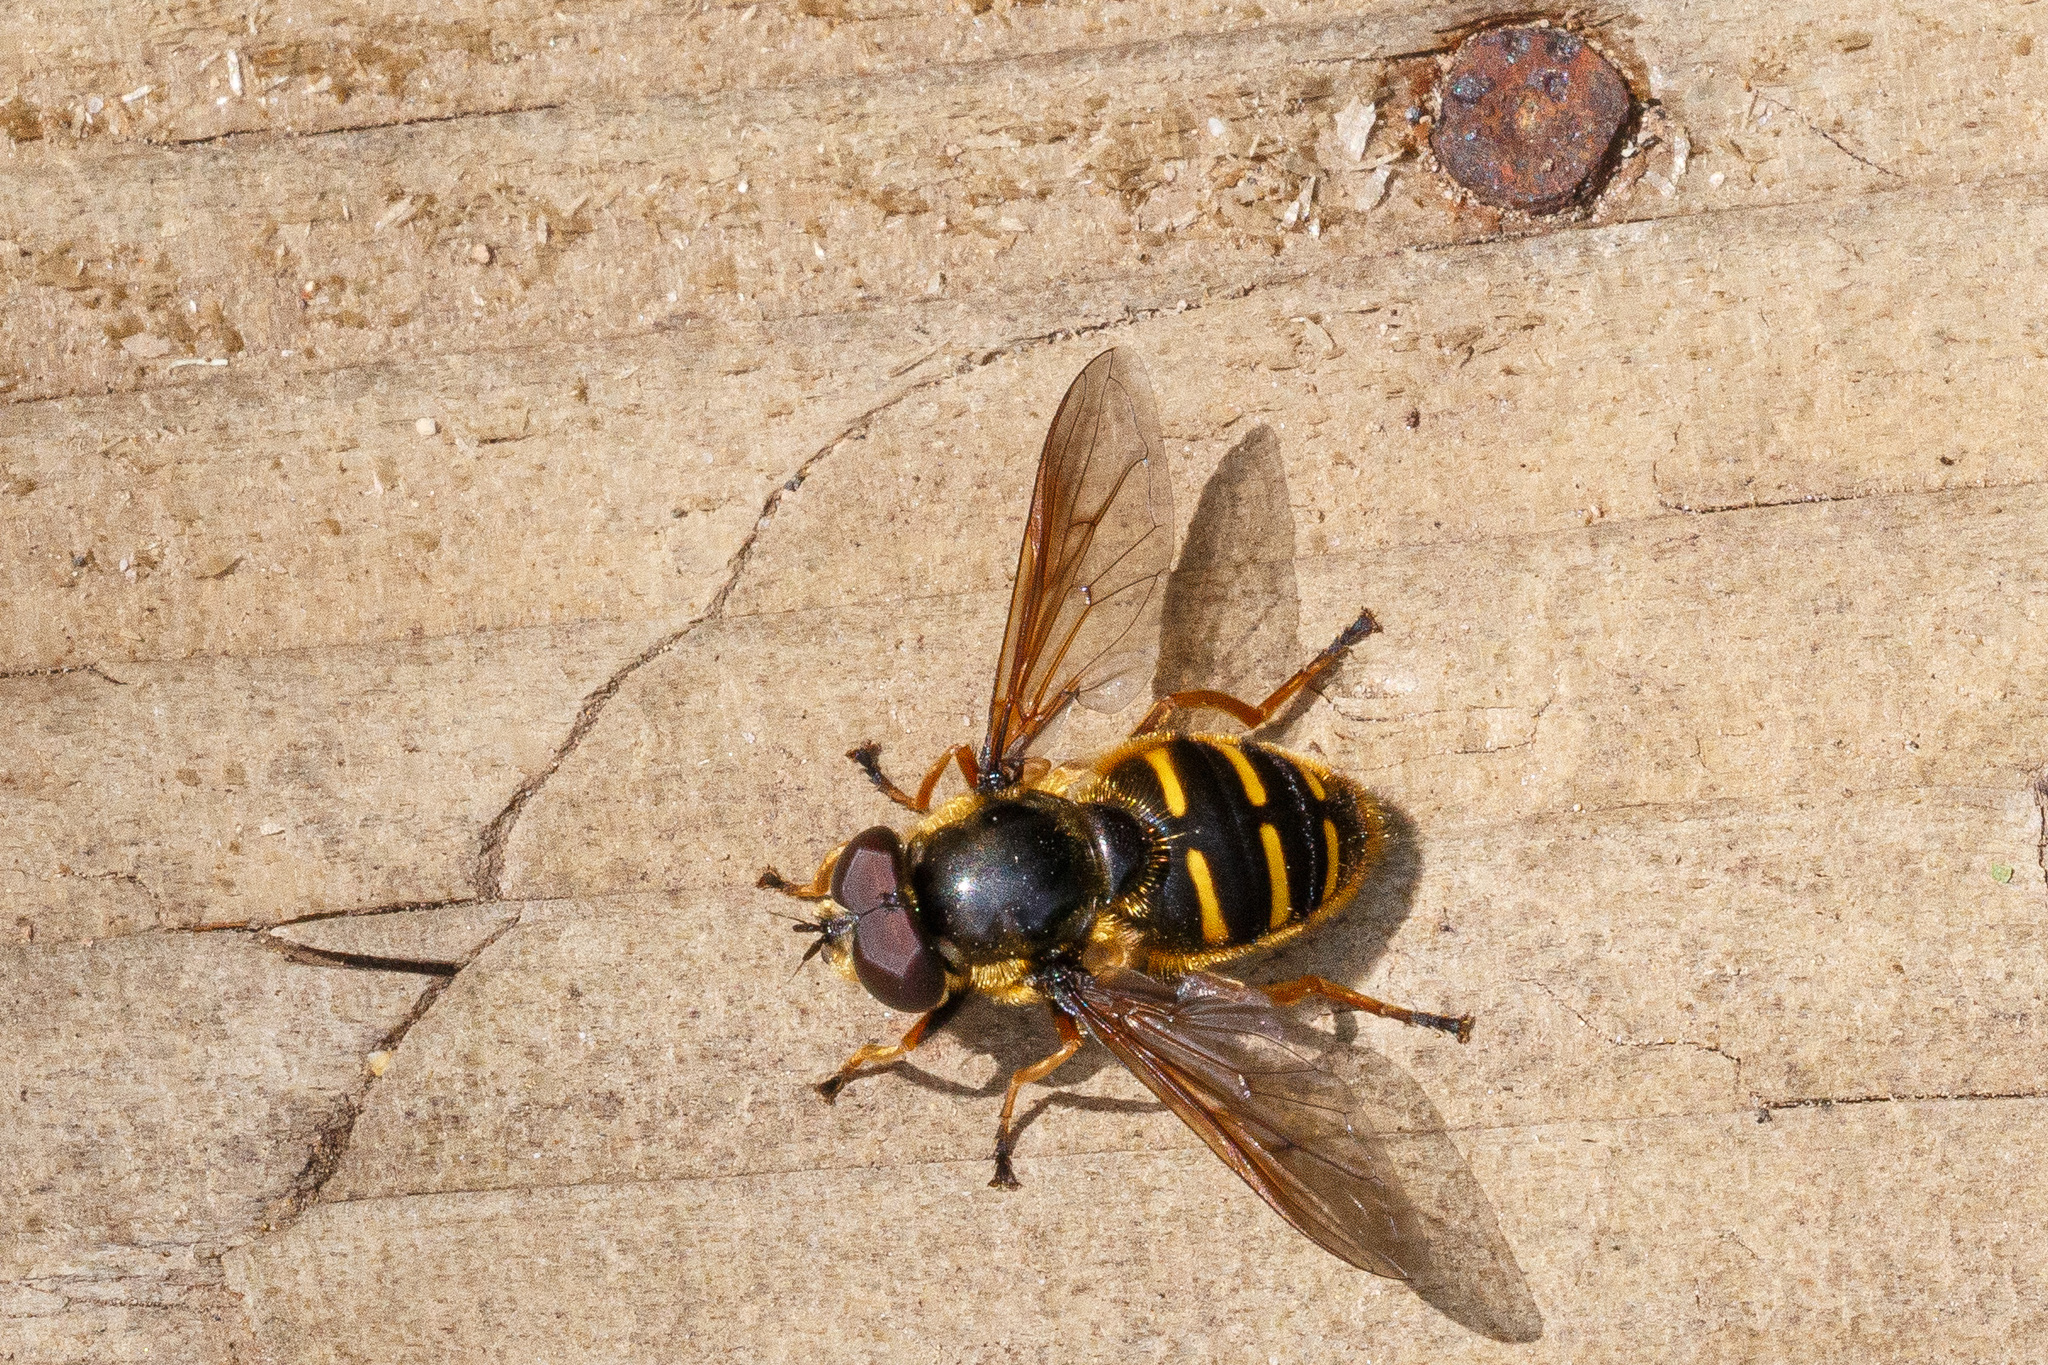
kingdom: Animalia
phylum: Arthropoda
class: Insecta
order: Diptera
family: Syrphidae
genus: Sericomyia
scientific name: Sericomyia chalcopyga
